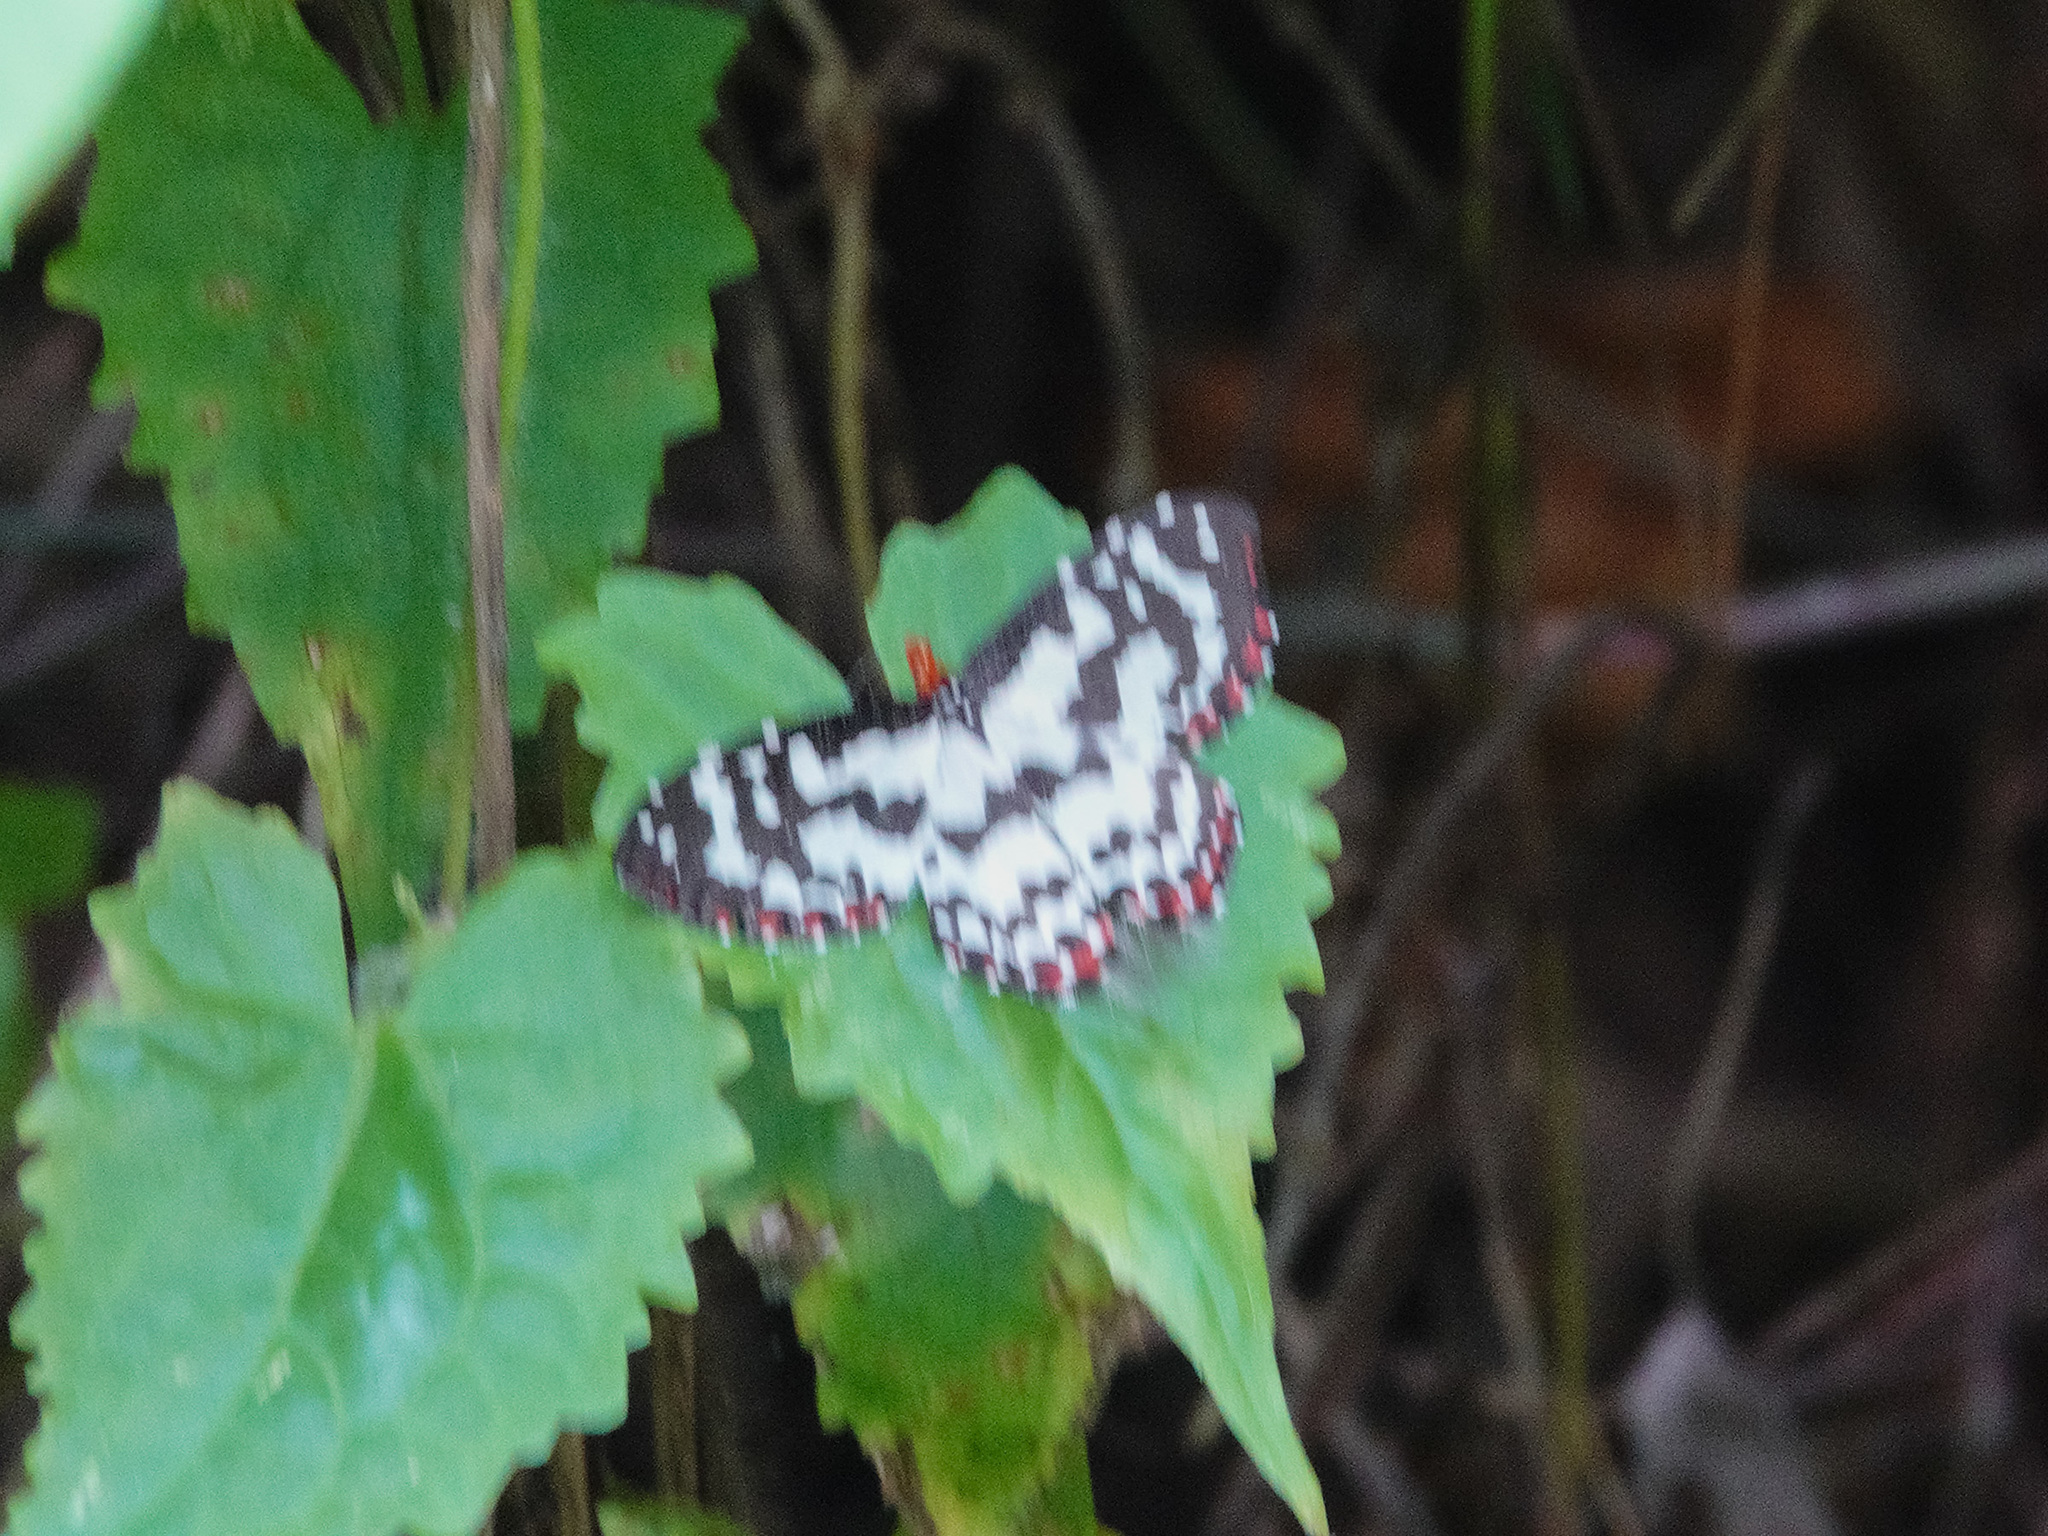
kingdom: Animalia
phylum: Arthropoda
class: Insecta
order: Lepidoptera
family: Callidulidae
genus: Pterothysanus
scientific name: Pterothysanus laticilia
